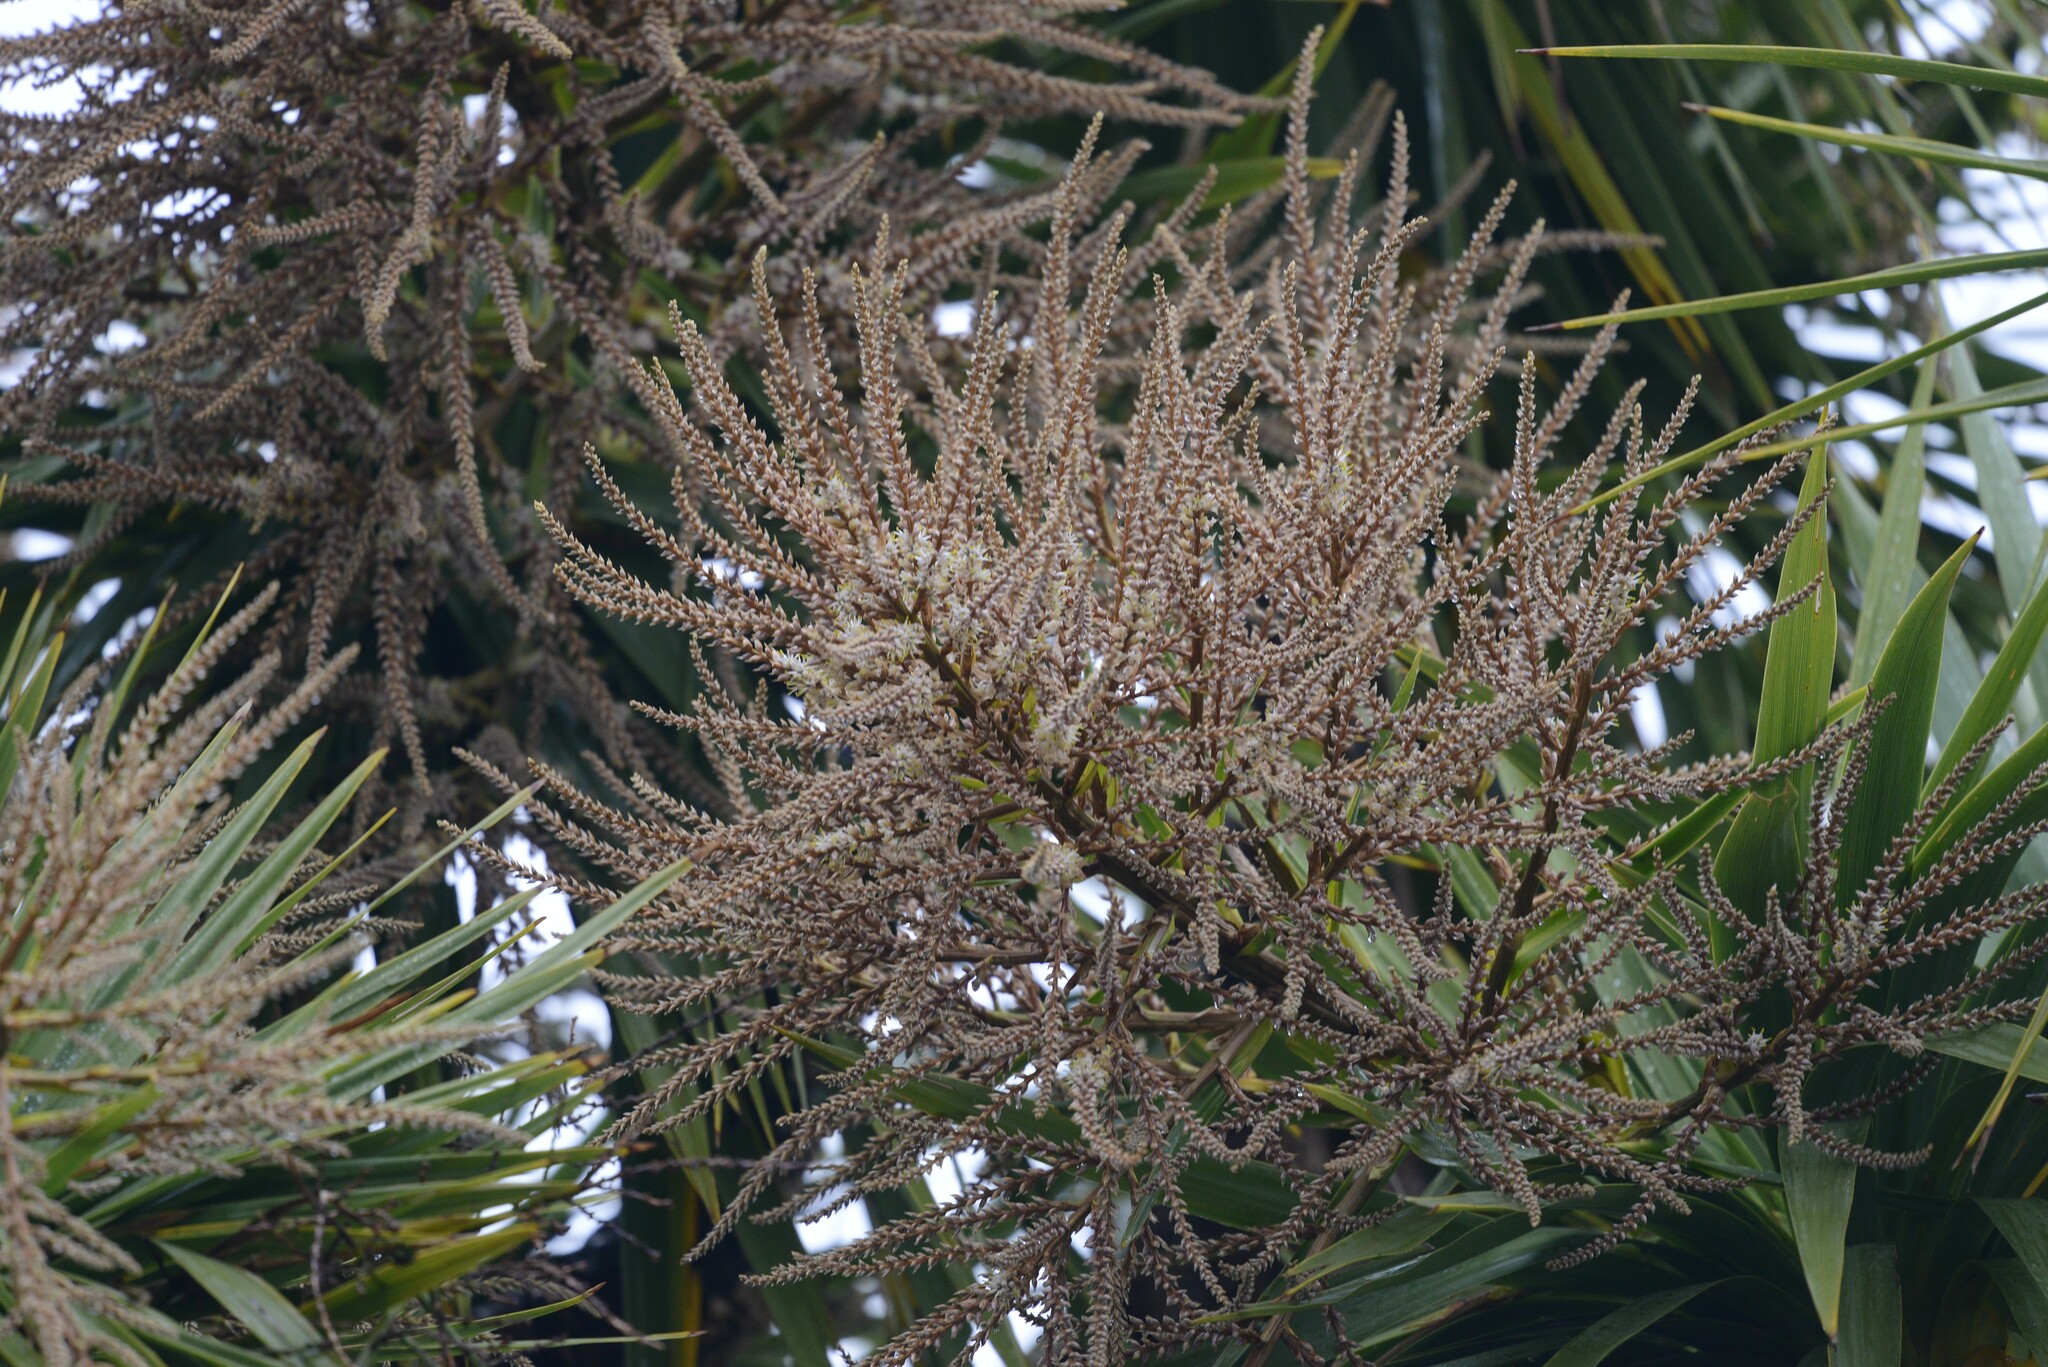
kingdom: Plantae
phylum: Tracheophyta
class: Liliopsida
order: Asparagales
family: Asparagaceae
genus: Cordyline
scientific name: Cordyline australis
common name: Cabbage-palm
